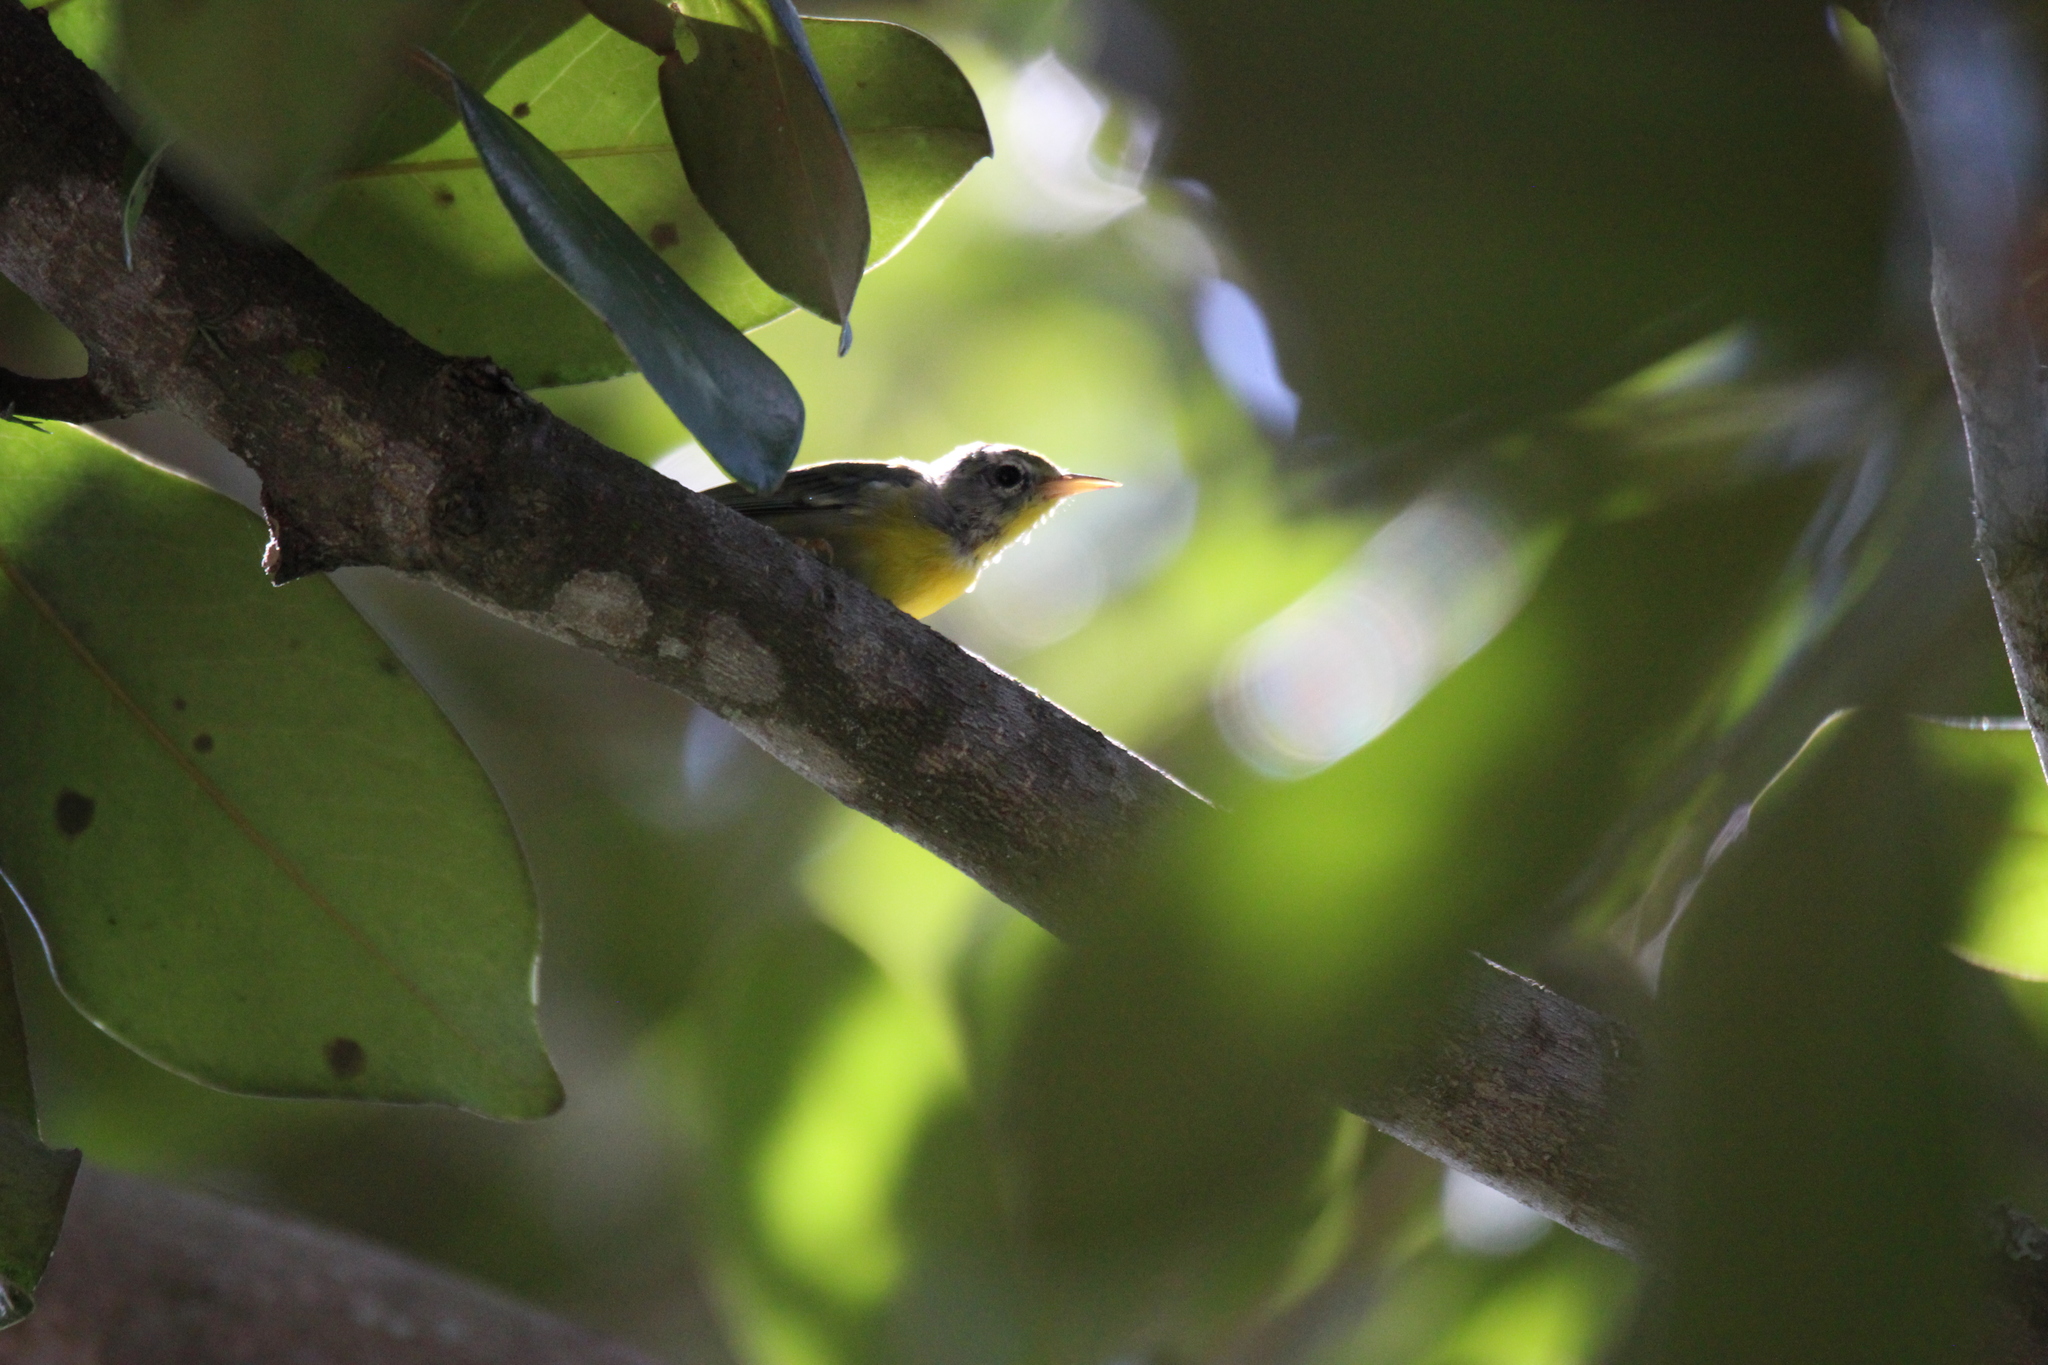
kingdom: Animalia
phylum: Chordata
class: Aves
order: Passeriformes
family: Parulidae
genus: Setophaga
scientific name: Setophaga americana
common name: Northern parula
